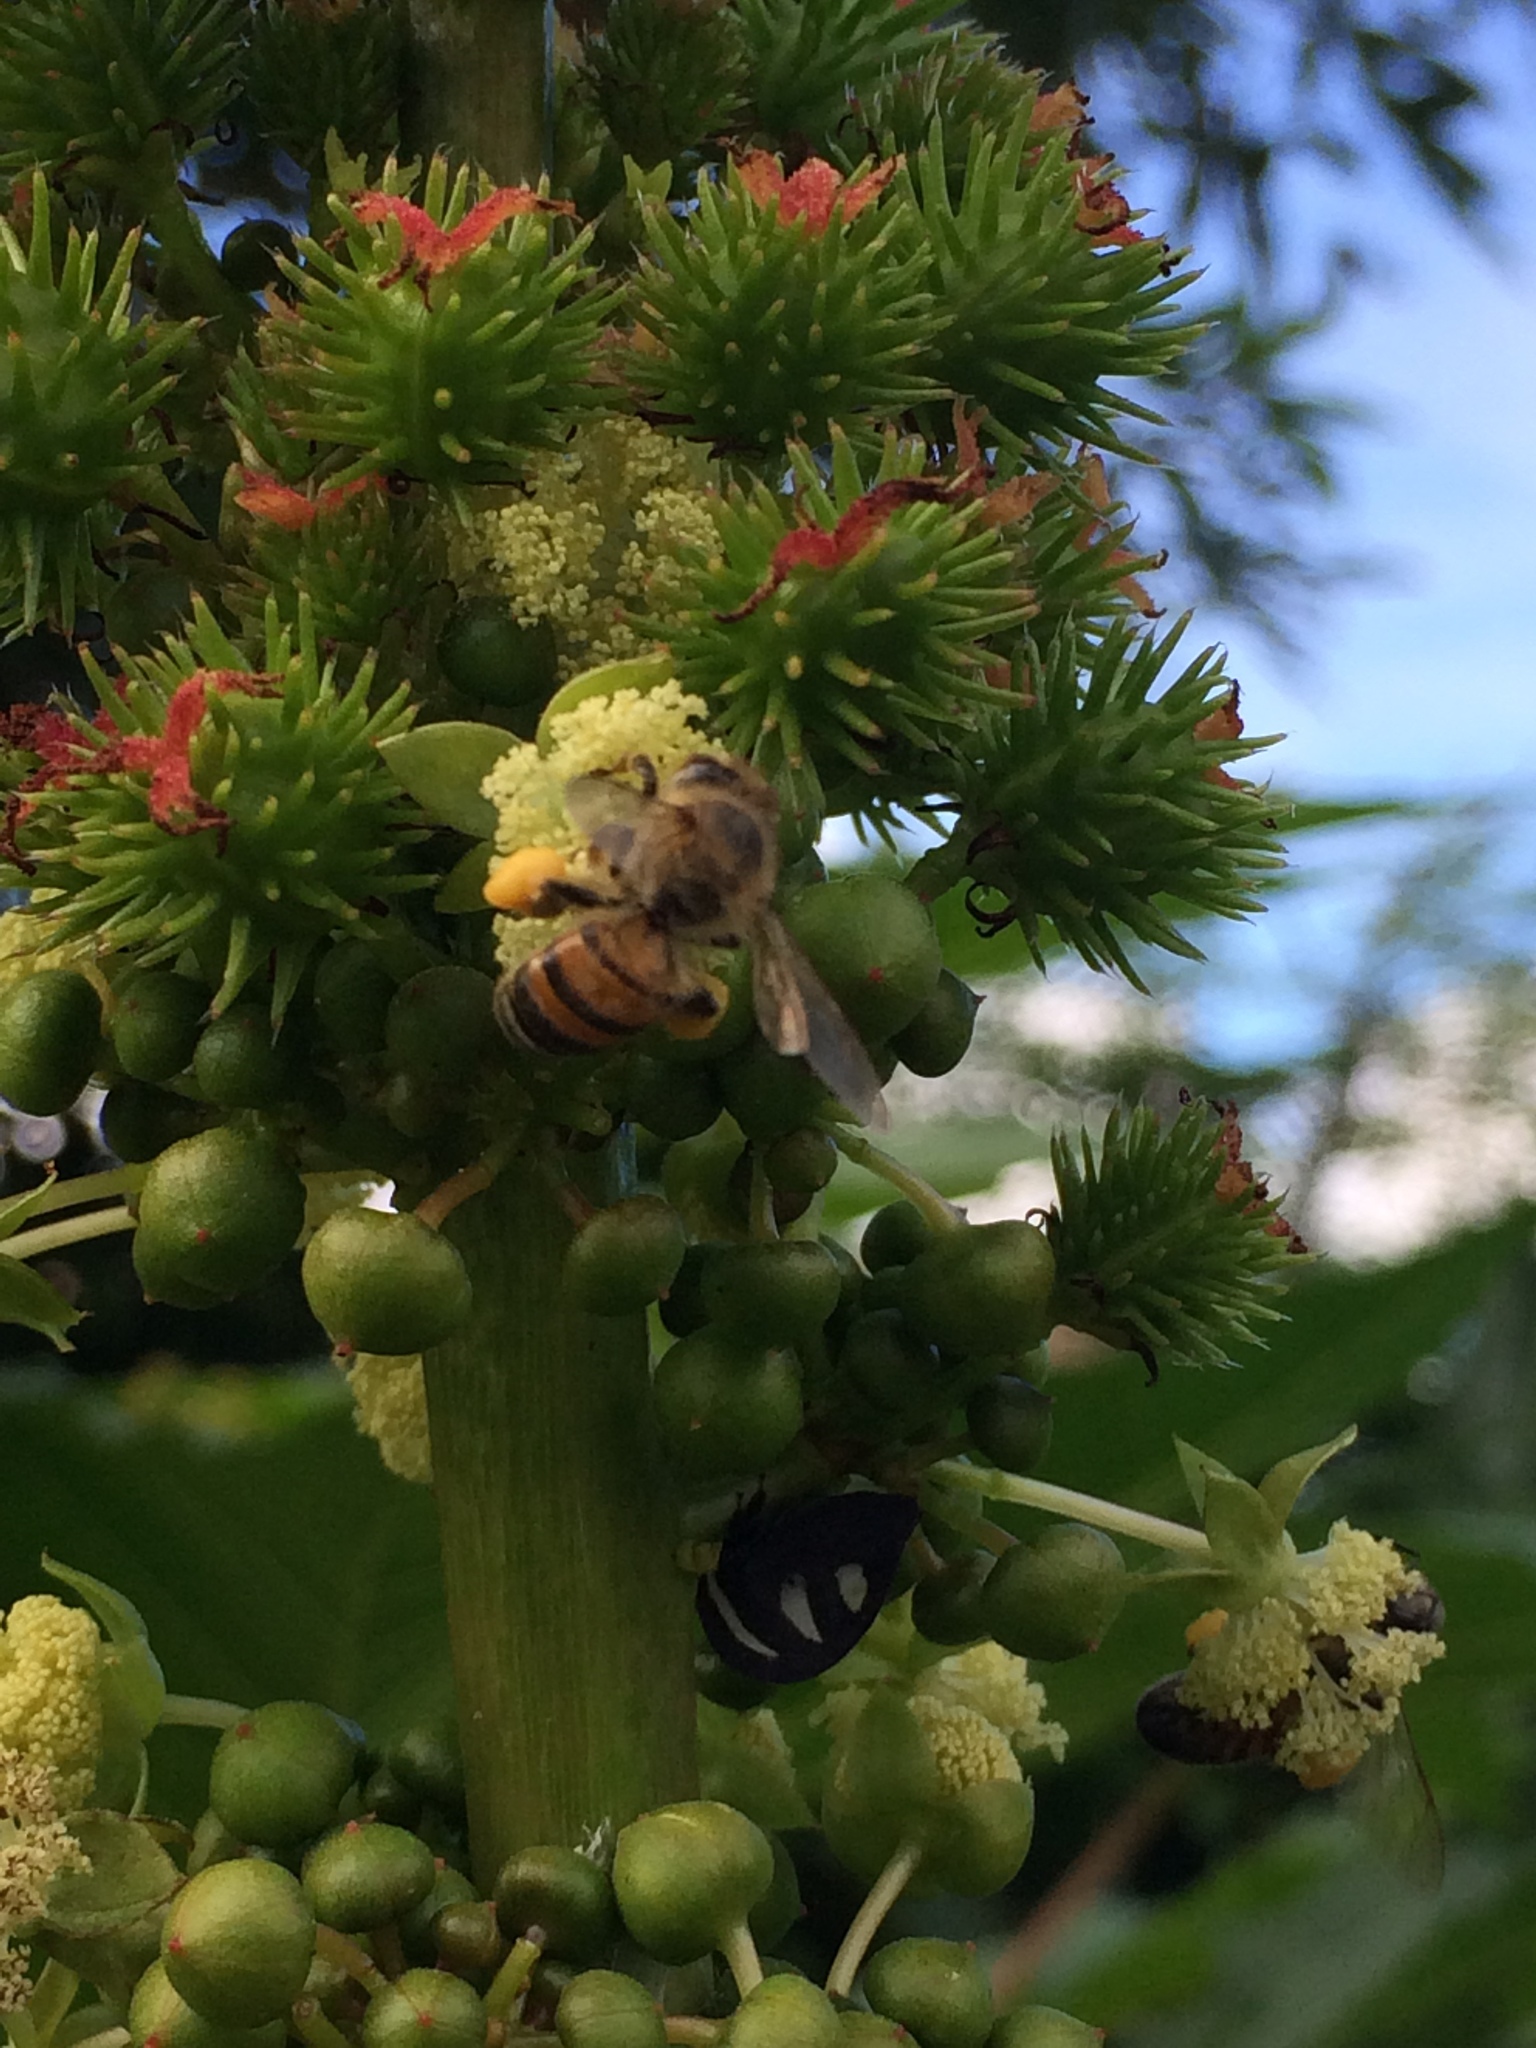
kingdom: Animalia
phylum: Arthropoda
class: Insecta
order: Hymenoptera
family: Apidae
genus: Apis
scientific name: Apis mellifera
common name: Honey bee
